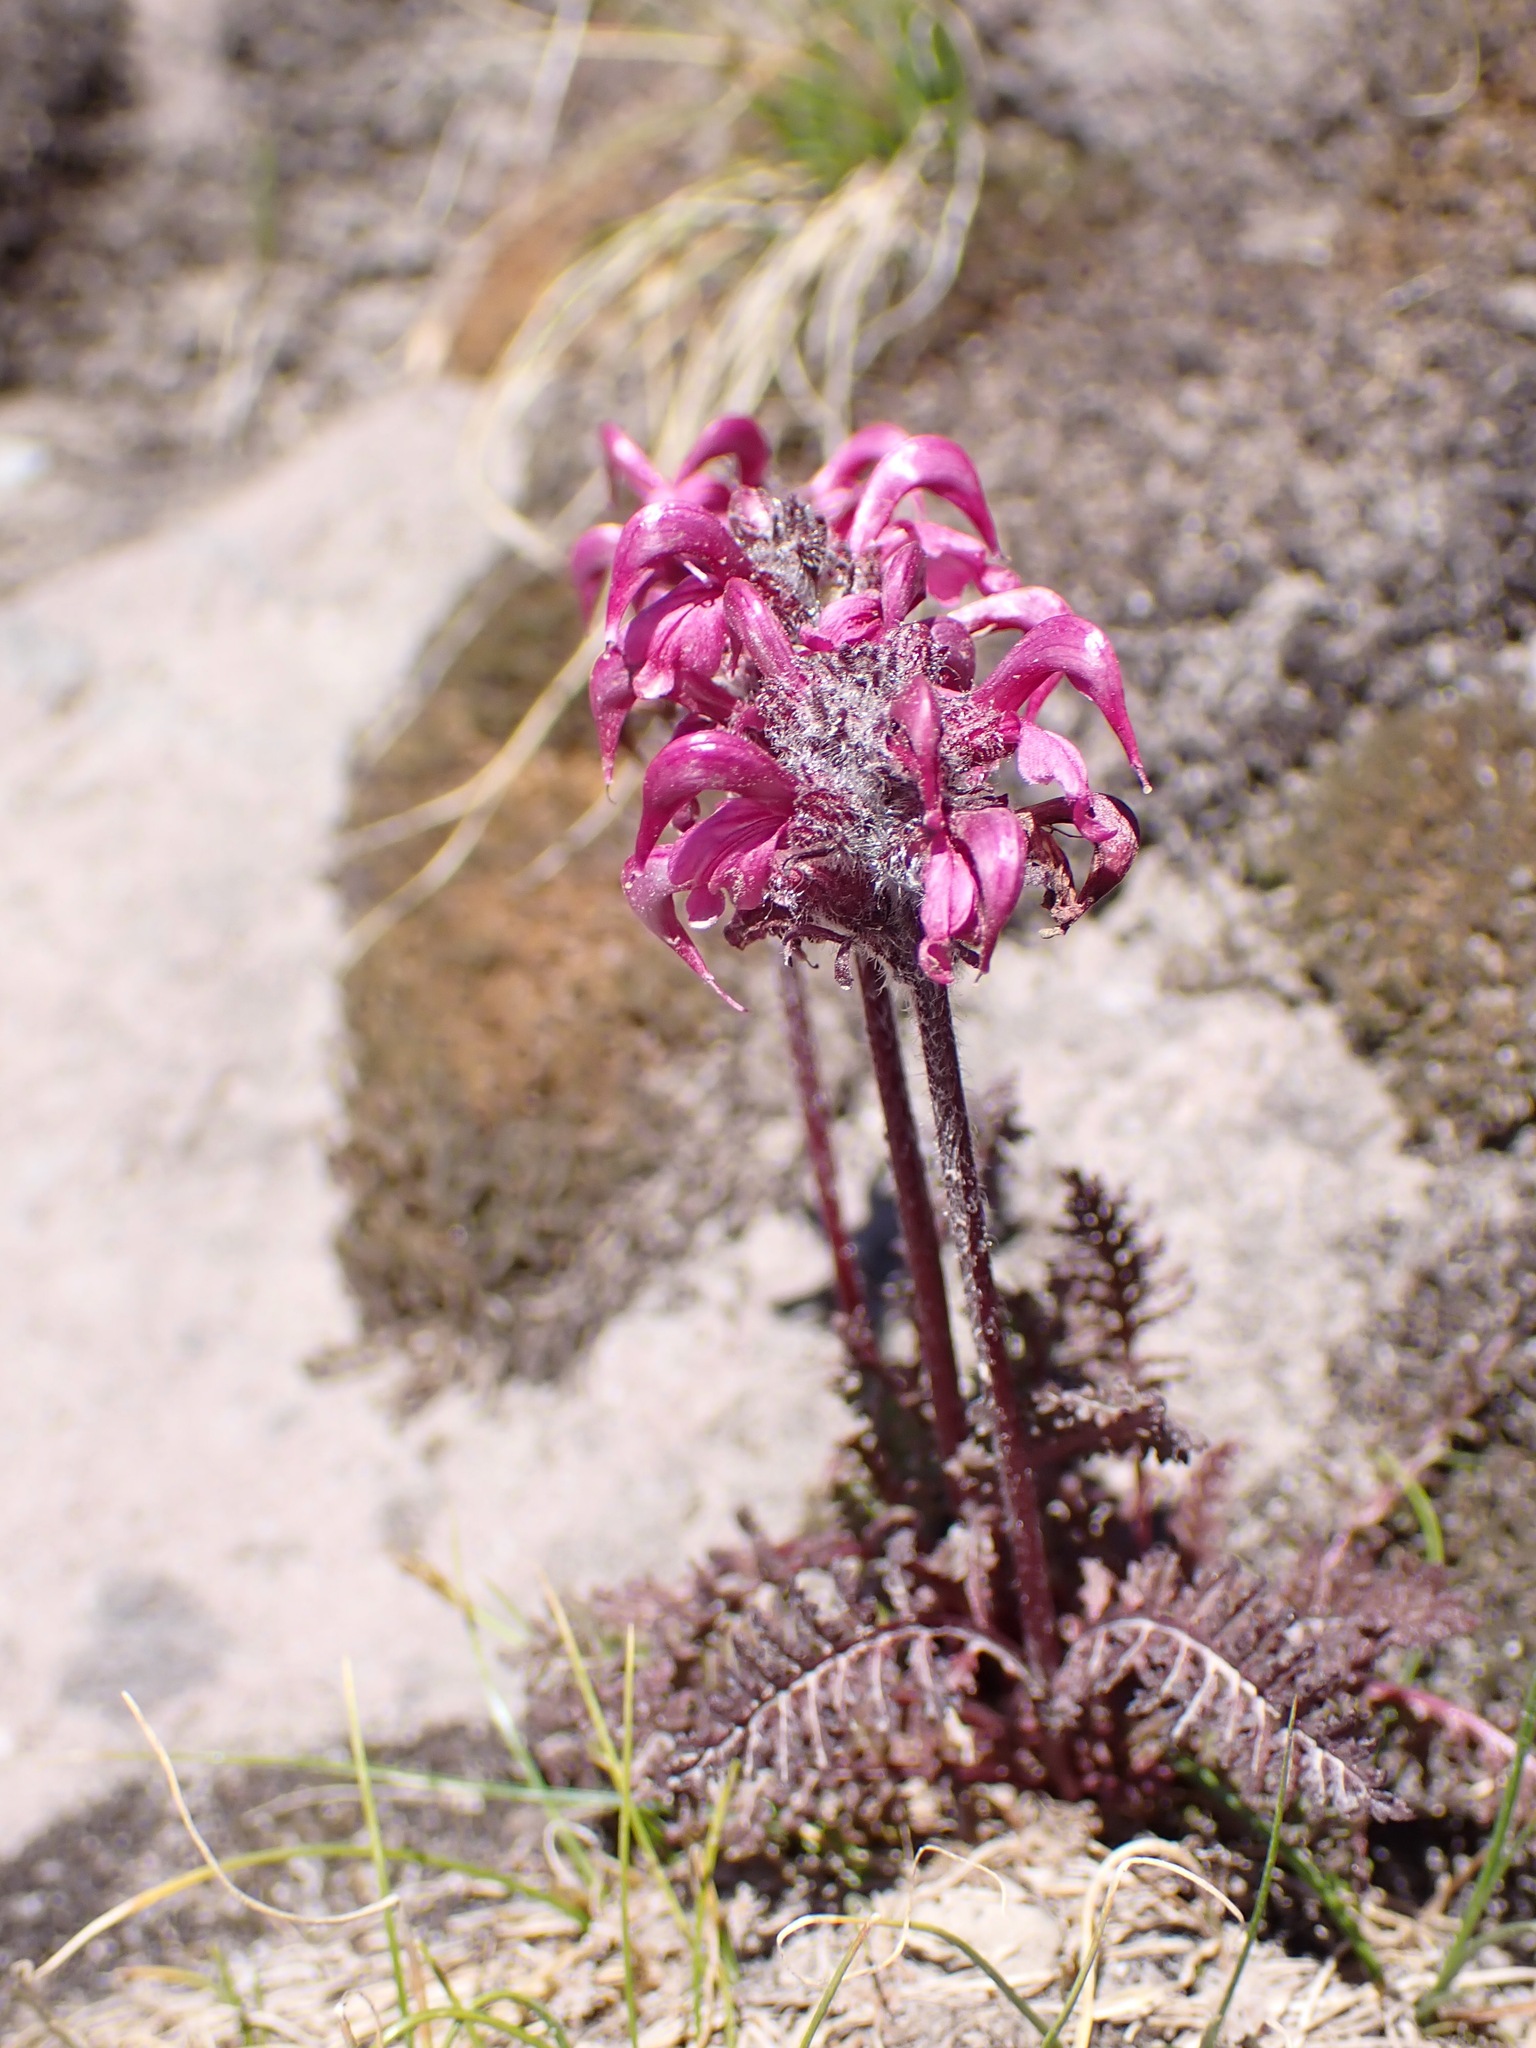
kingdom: Plantae
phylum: Tracheophyta
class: Magnoliopsida
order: Lamiales
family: Orobanchaceae
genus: Pedicularis
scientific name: Pedicularis ornithorhynchos
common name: Bird's-beak lousewort
